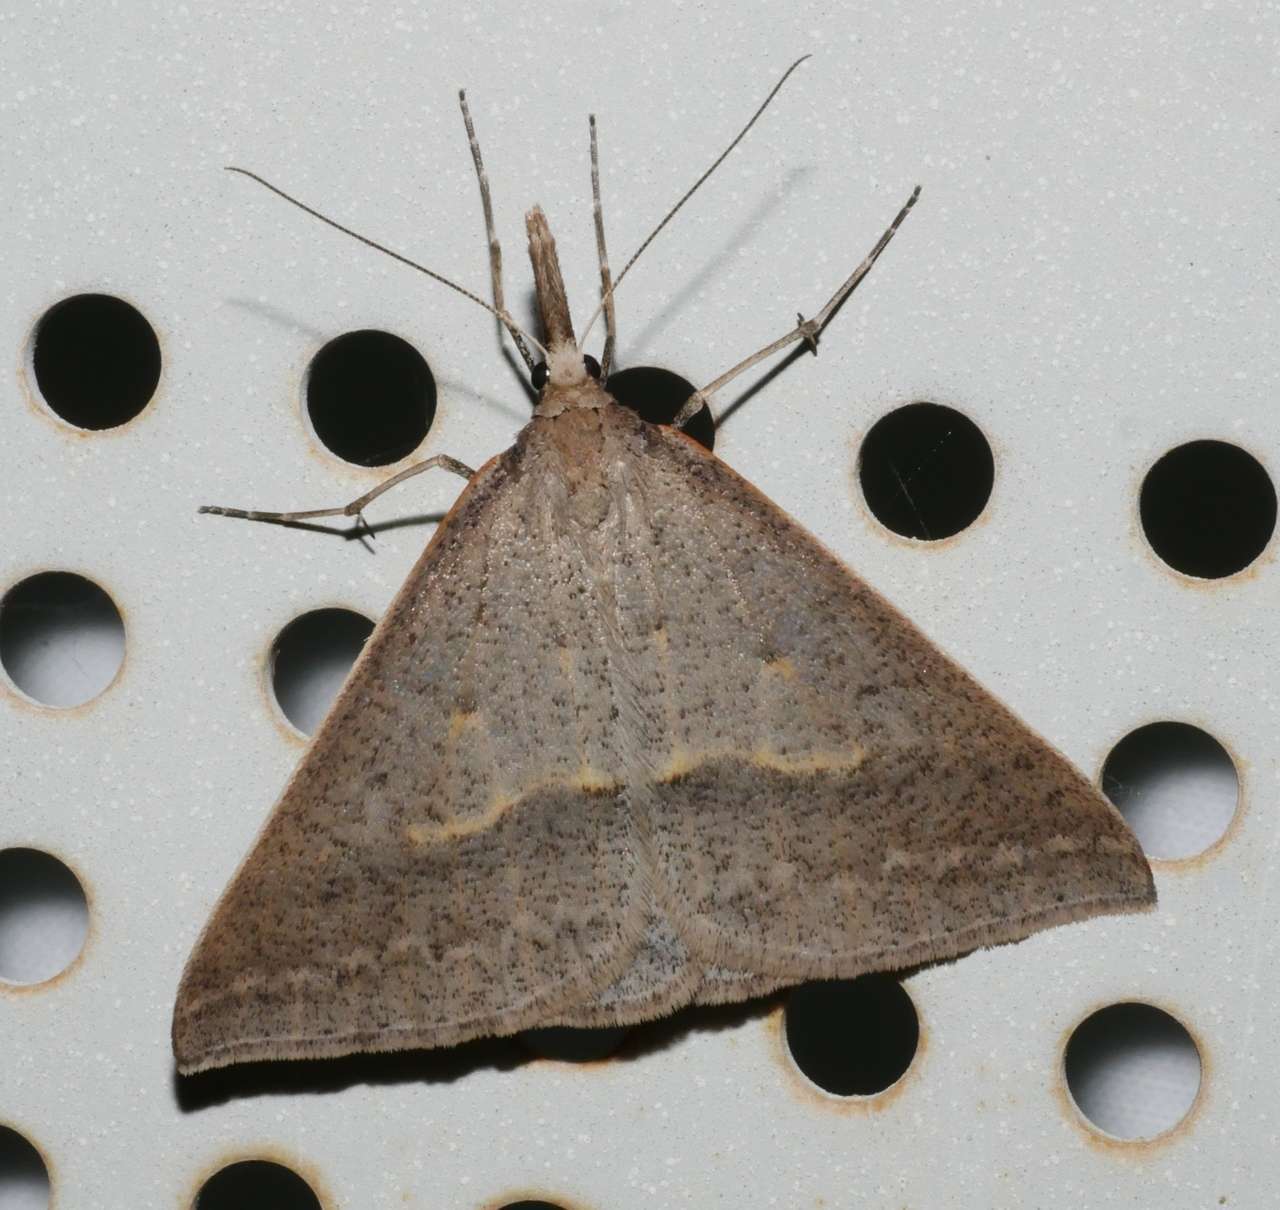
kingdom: Animalia
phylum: Arthropoda
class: Insecta
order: Lepidoptera
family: Geometridae
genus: Epidesmia
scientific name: Epidesmia hypenaria
